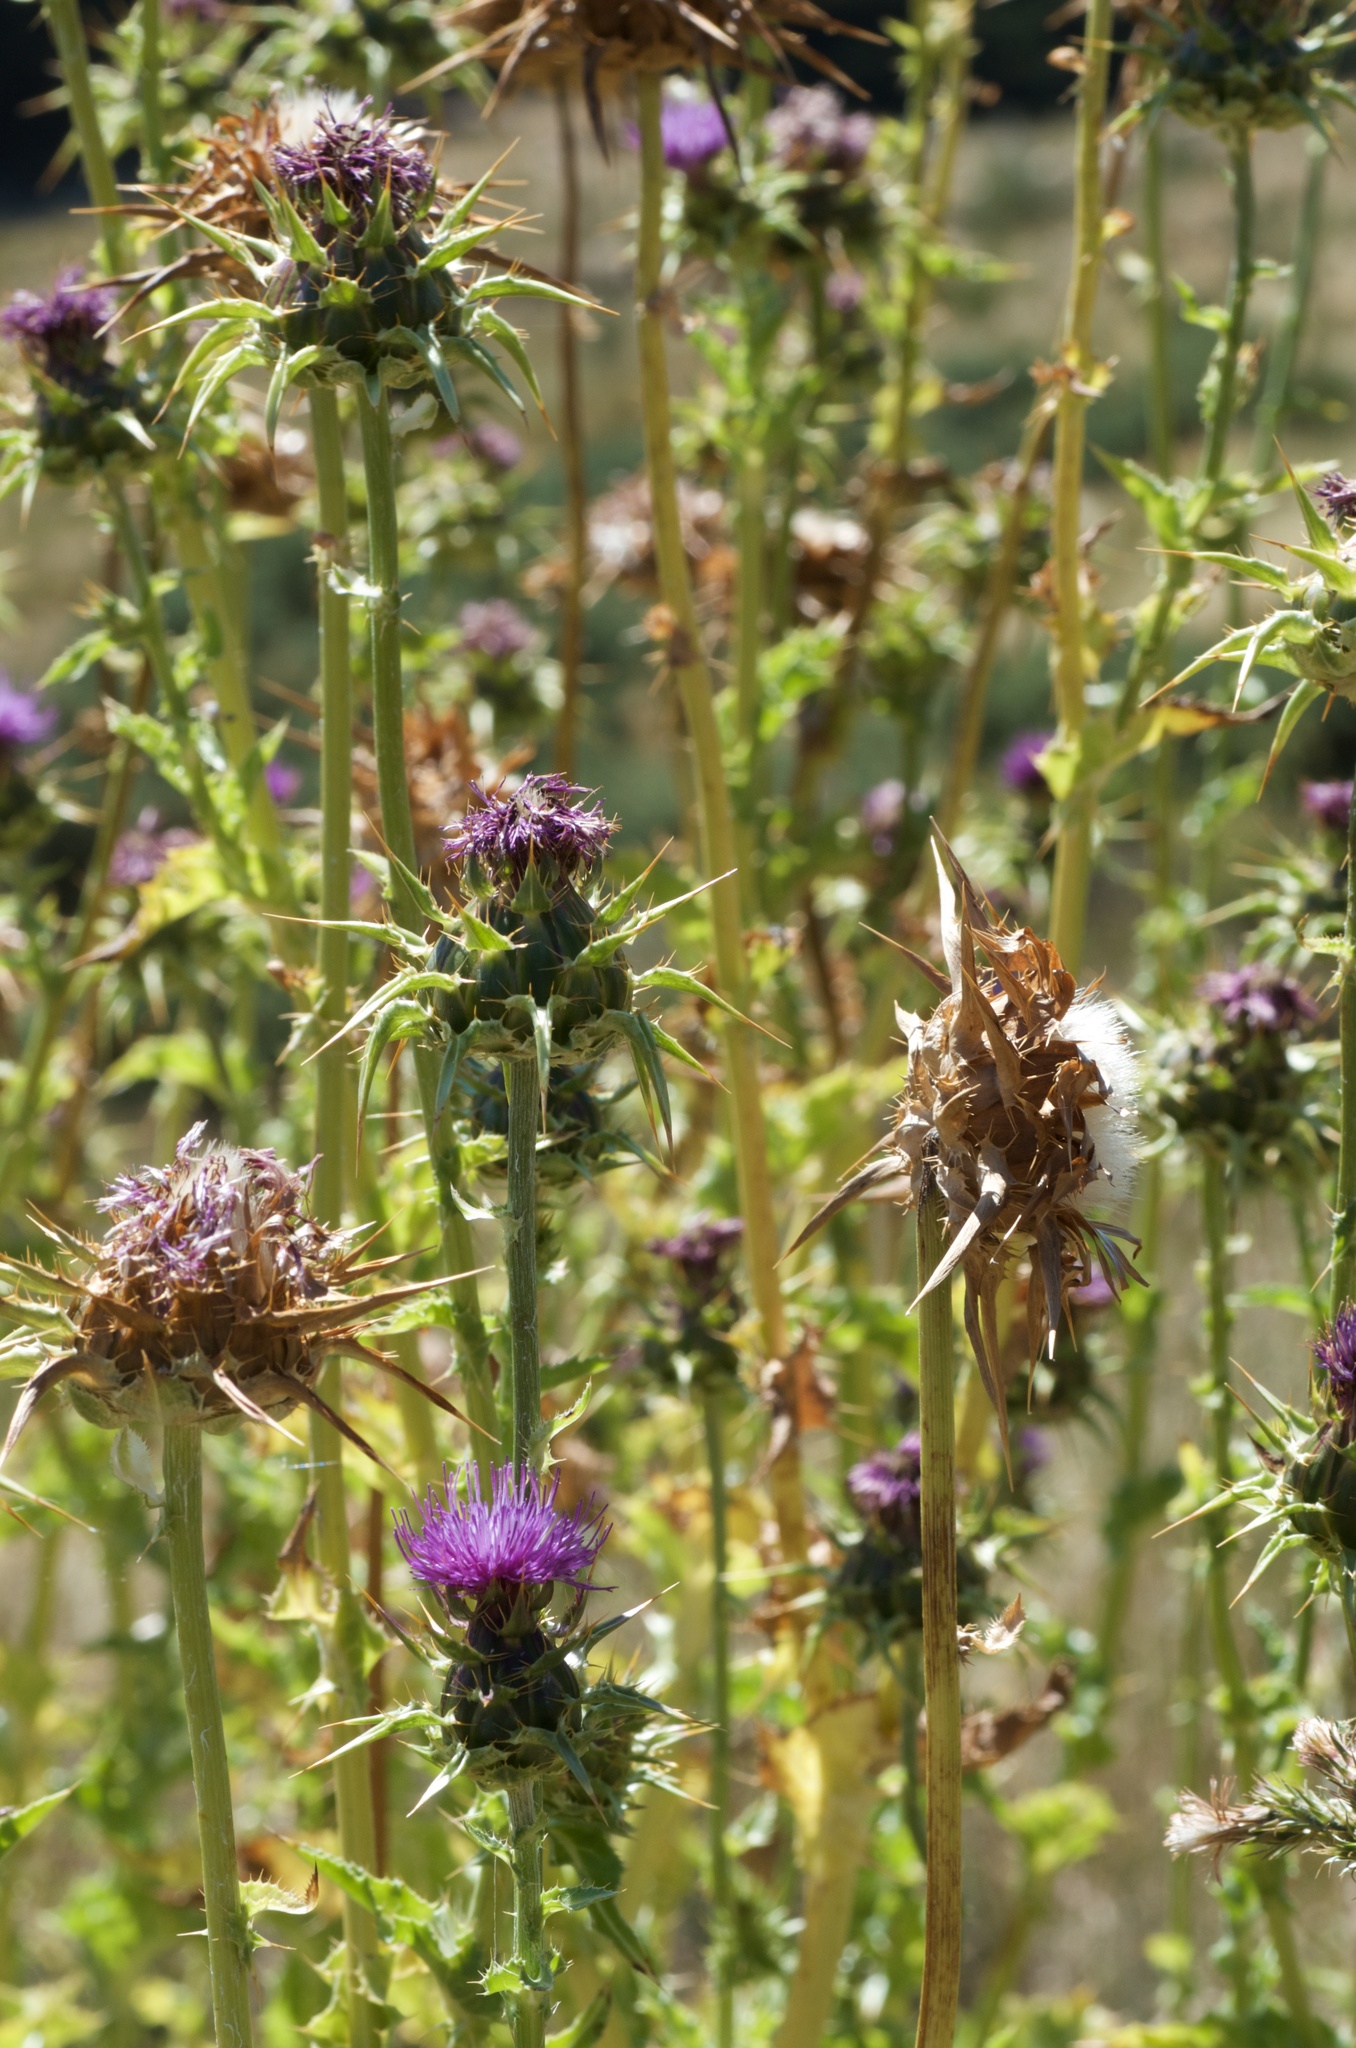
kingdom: Plantae
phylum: Tracheophyta
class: Magnoliopsida
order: Asterales
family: Asteraceae
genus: Silybum
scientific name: Silybum marianum
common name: Milk thistle
